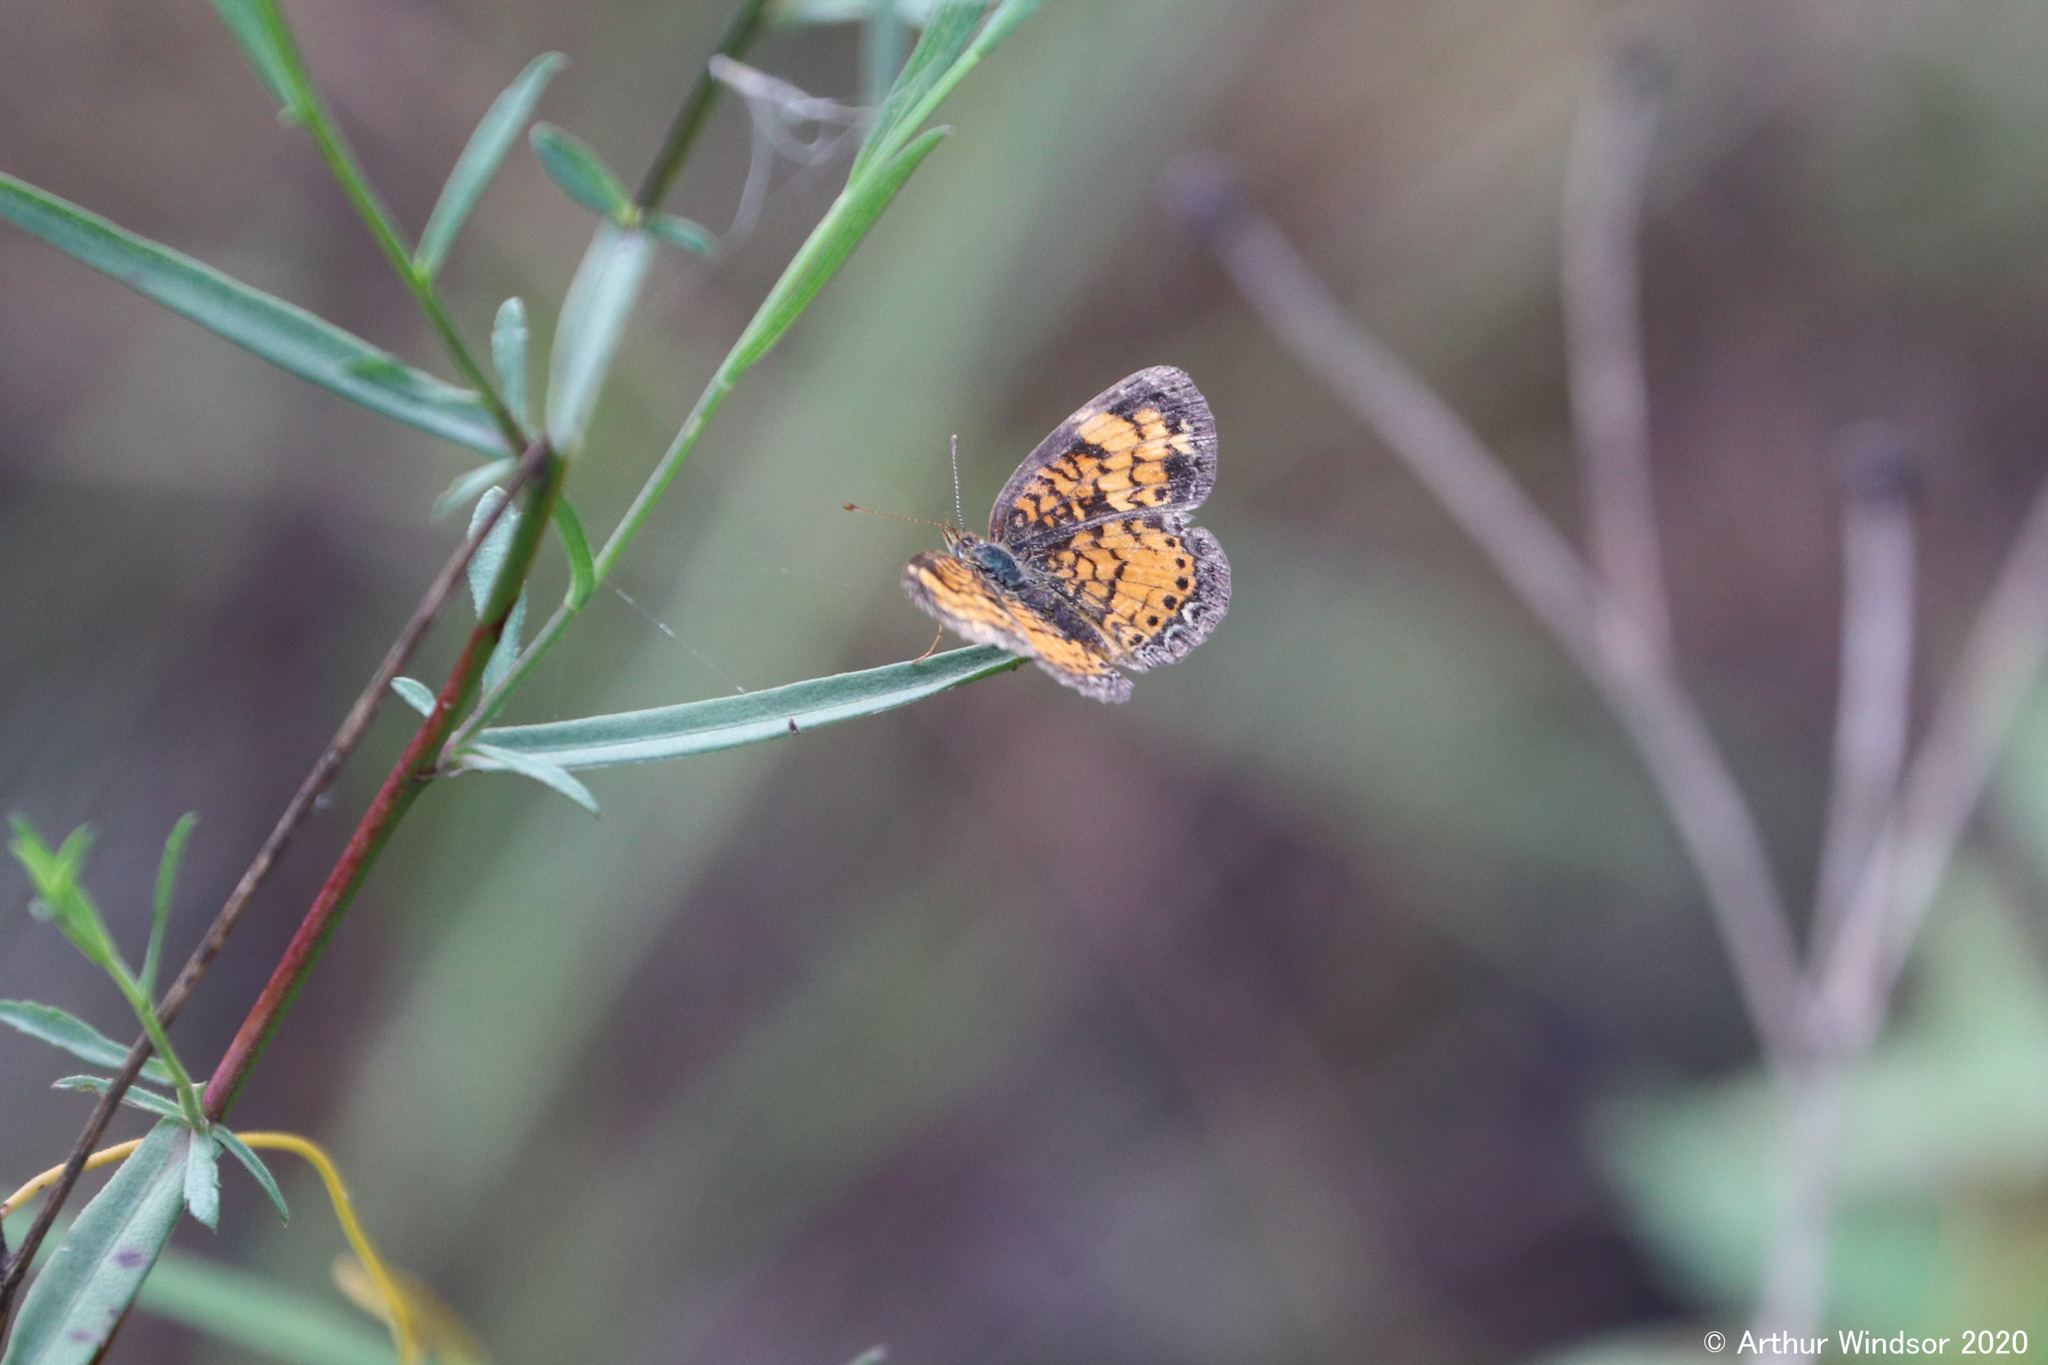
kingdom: Animalia
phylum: Arthropoda
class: Insecta
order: Lepidoptera
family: Nymphalidae
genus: Phyciodes
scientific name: Phyciodes tharos
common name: Pearl crescent
